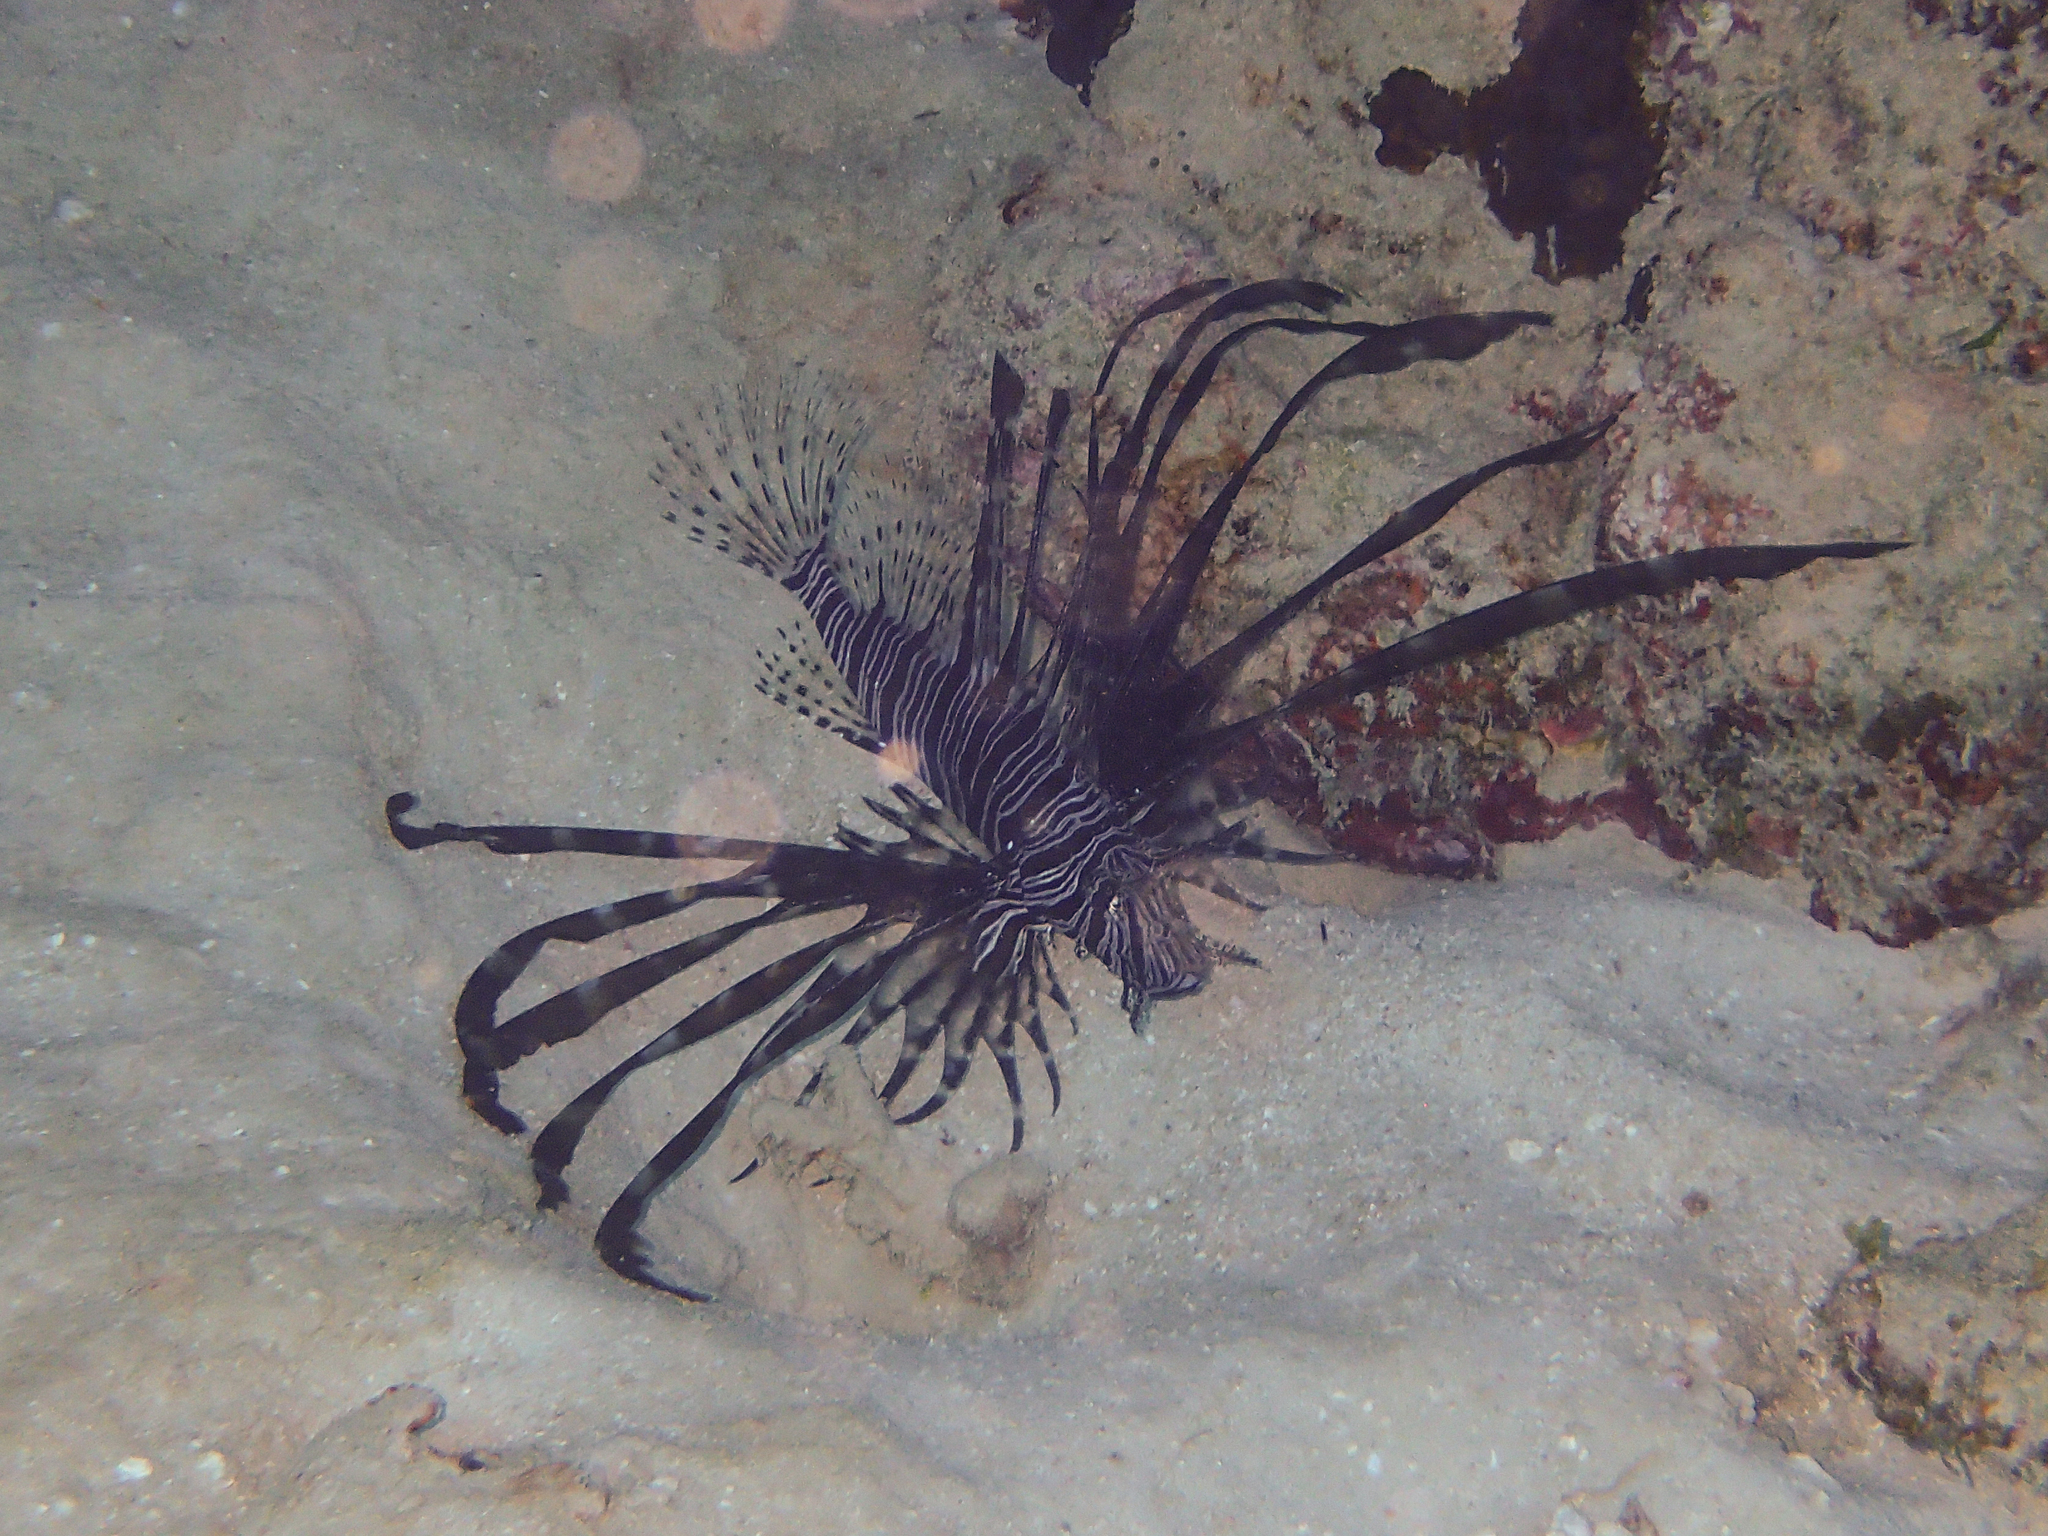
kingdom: Animalia
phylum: Chordata
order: Scorpaeniformes
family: Scorpaenidae
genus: Pterois
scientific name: Pterois volitans
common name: Lionfish
